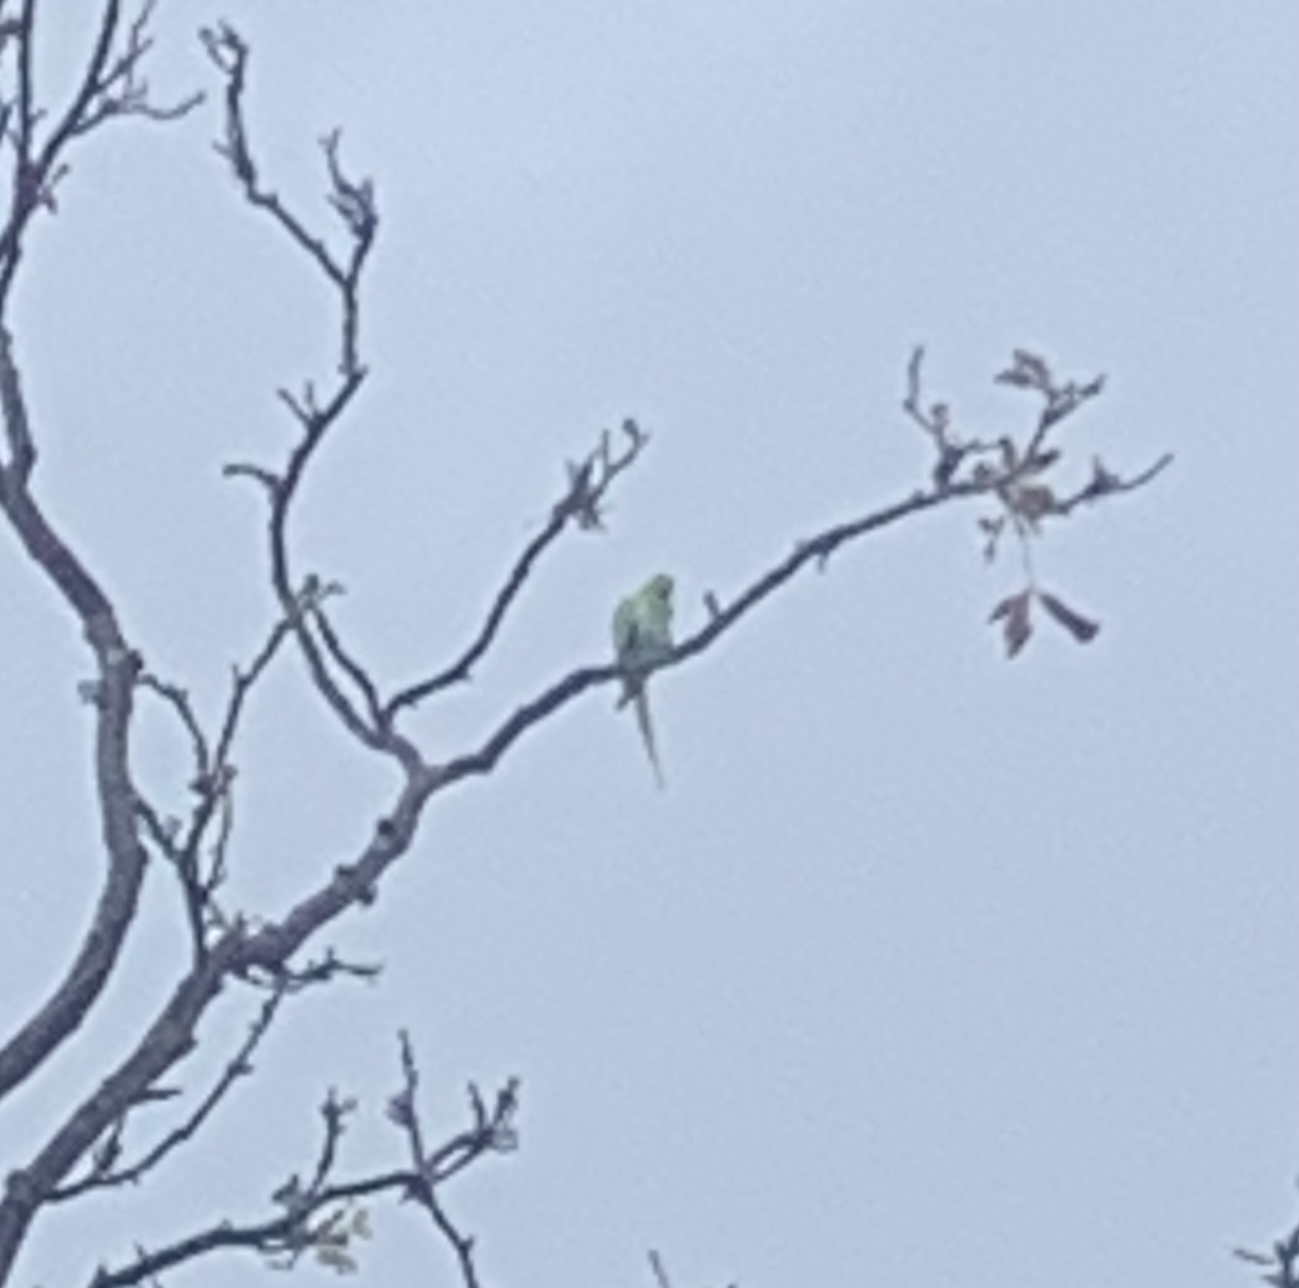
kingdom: Animalia
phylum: Chordata
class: Aves
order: Psittaciformes
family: Psittacidae
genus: Psittacula
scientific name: Psittacula krameri
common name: Rose-ringed parakeet
